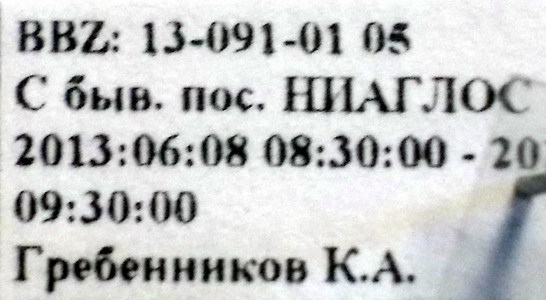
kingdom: Animalia
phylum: Arthropoda
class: Insecta
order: Hemiptera
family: Pentatomidae
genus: Antheminia
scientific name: Antheminia lunulata
